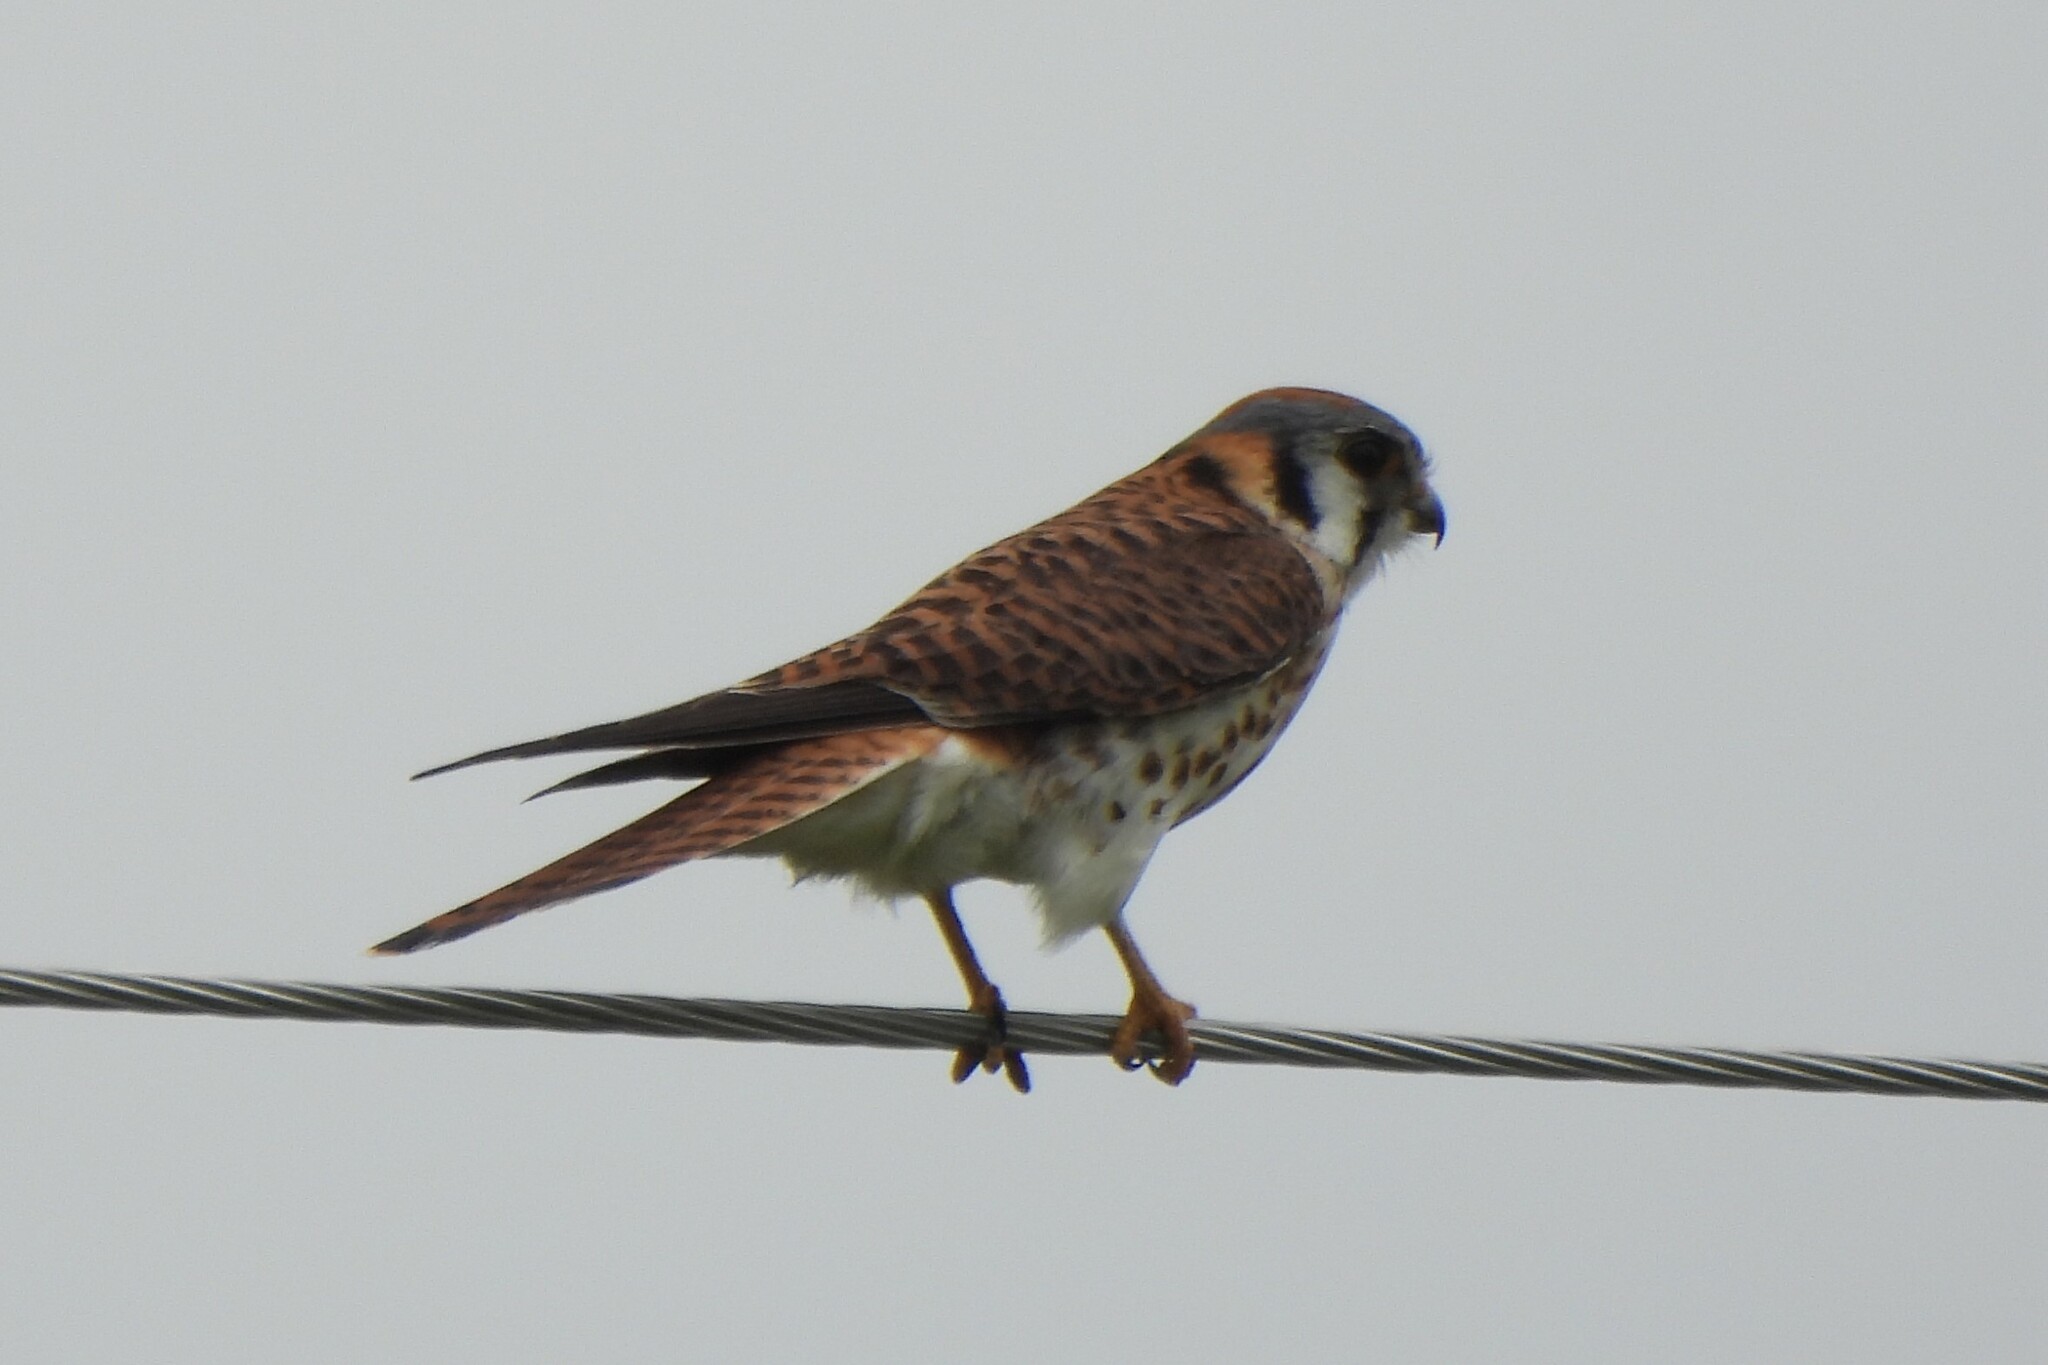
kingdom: Animalia
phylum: Chordata
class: Aves
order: Falconiformes
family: Falconidae
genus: Falco
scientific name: Falco sparverius
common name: American kestrel
